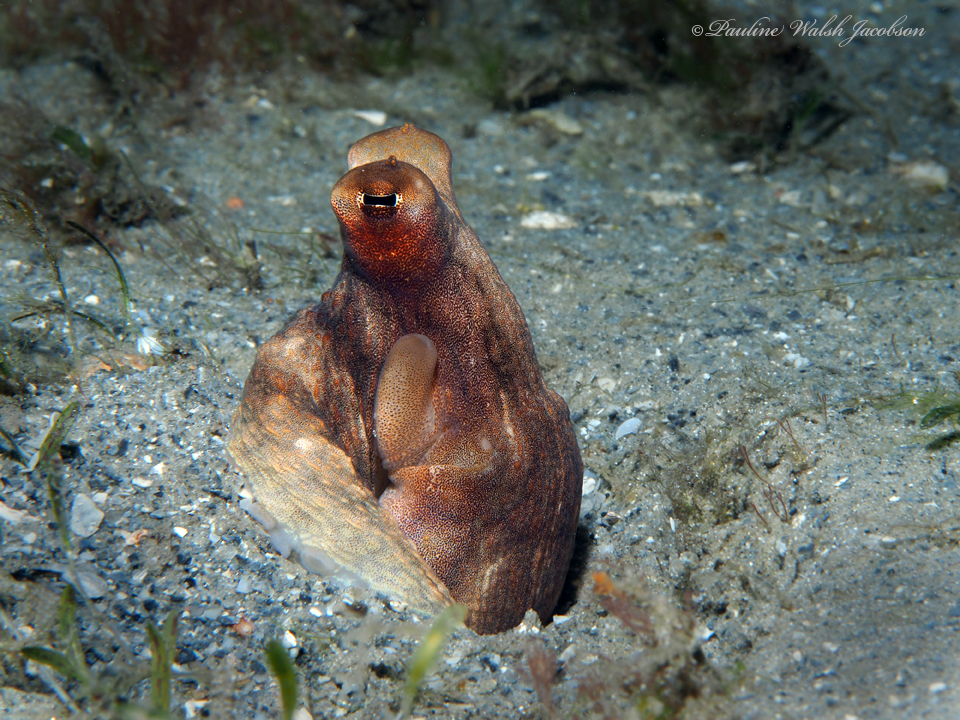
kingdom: Animalia
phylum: Mollusca
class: Cephalopoda
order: Octopoda
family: Octopodidae
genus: Macrotritopus
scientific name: Macrotritopus defilippi
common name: Lilliput longarm octopus
